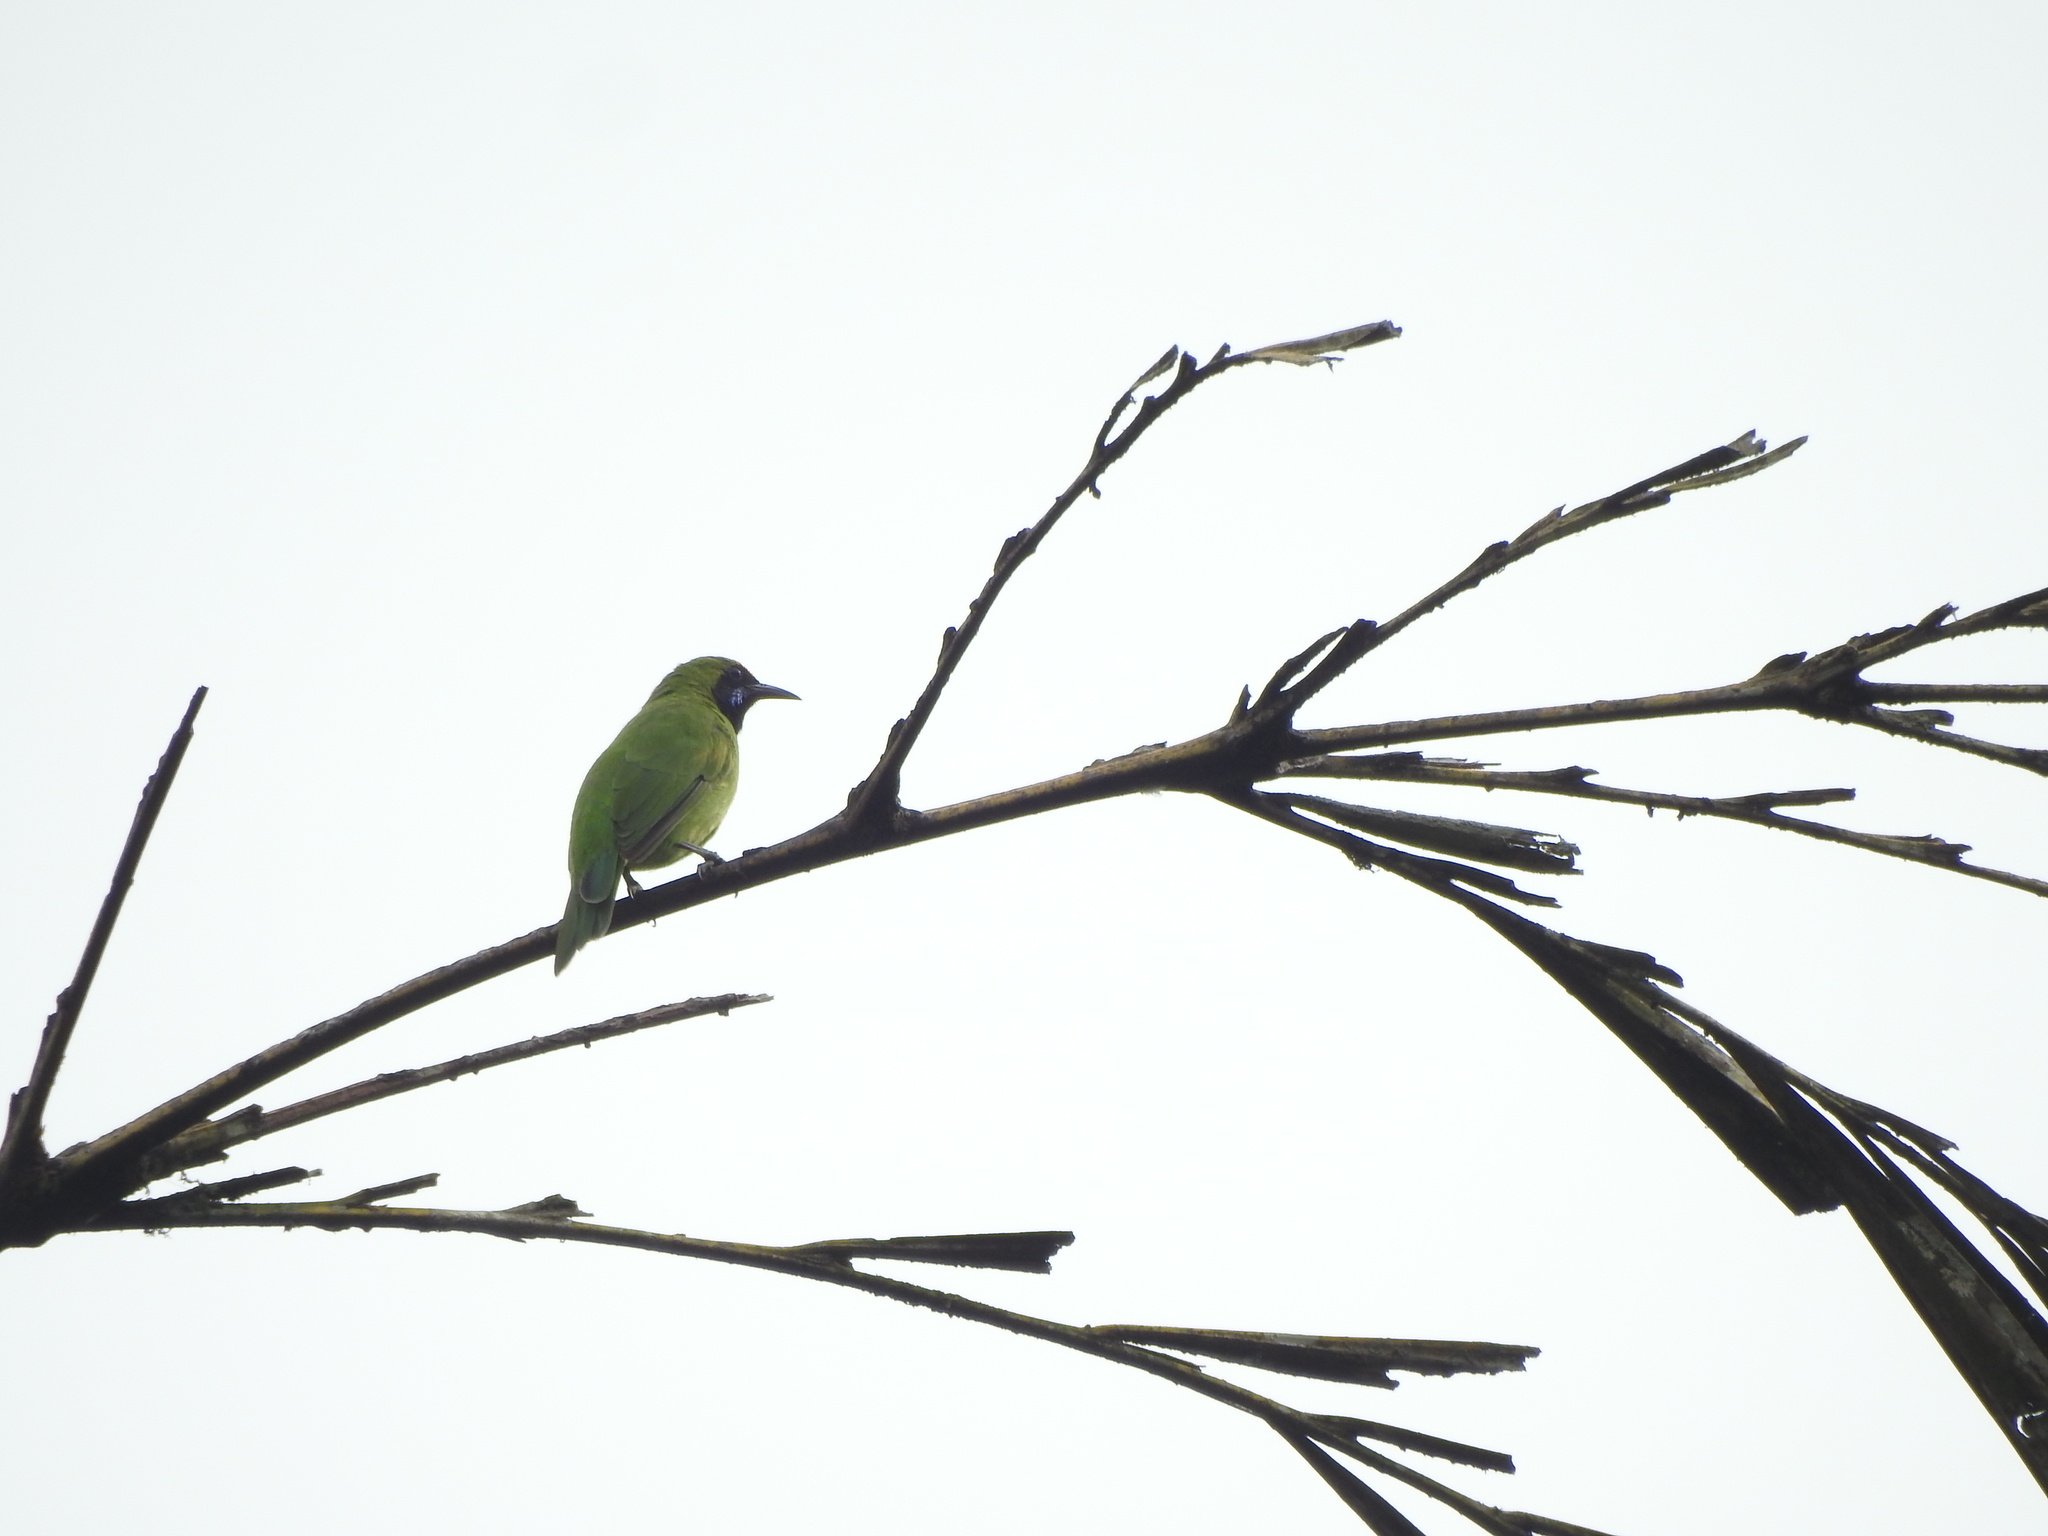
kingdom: Animalia
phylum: Chordata
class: Aves
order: Passeriformes
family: Chloropseidae
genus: Chloropsis
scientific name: Chloropsis aurifrons
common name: Golden-fronted leafbird
